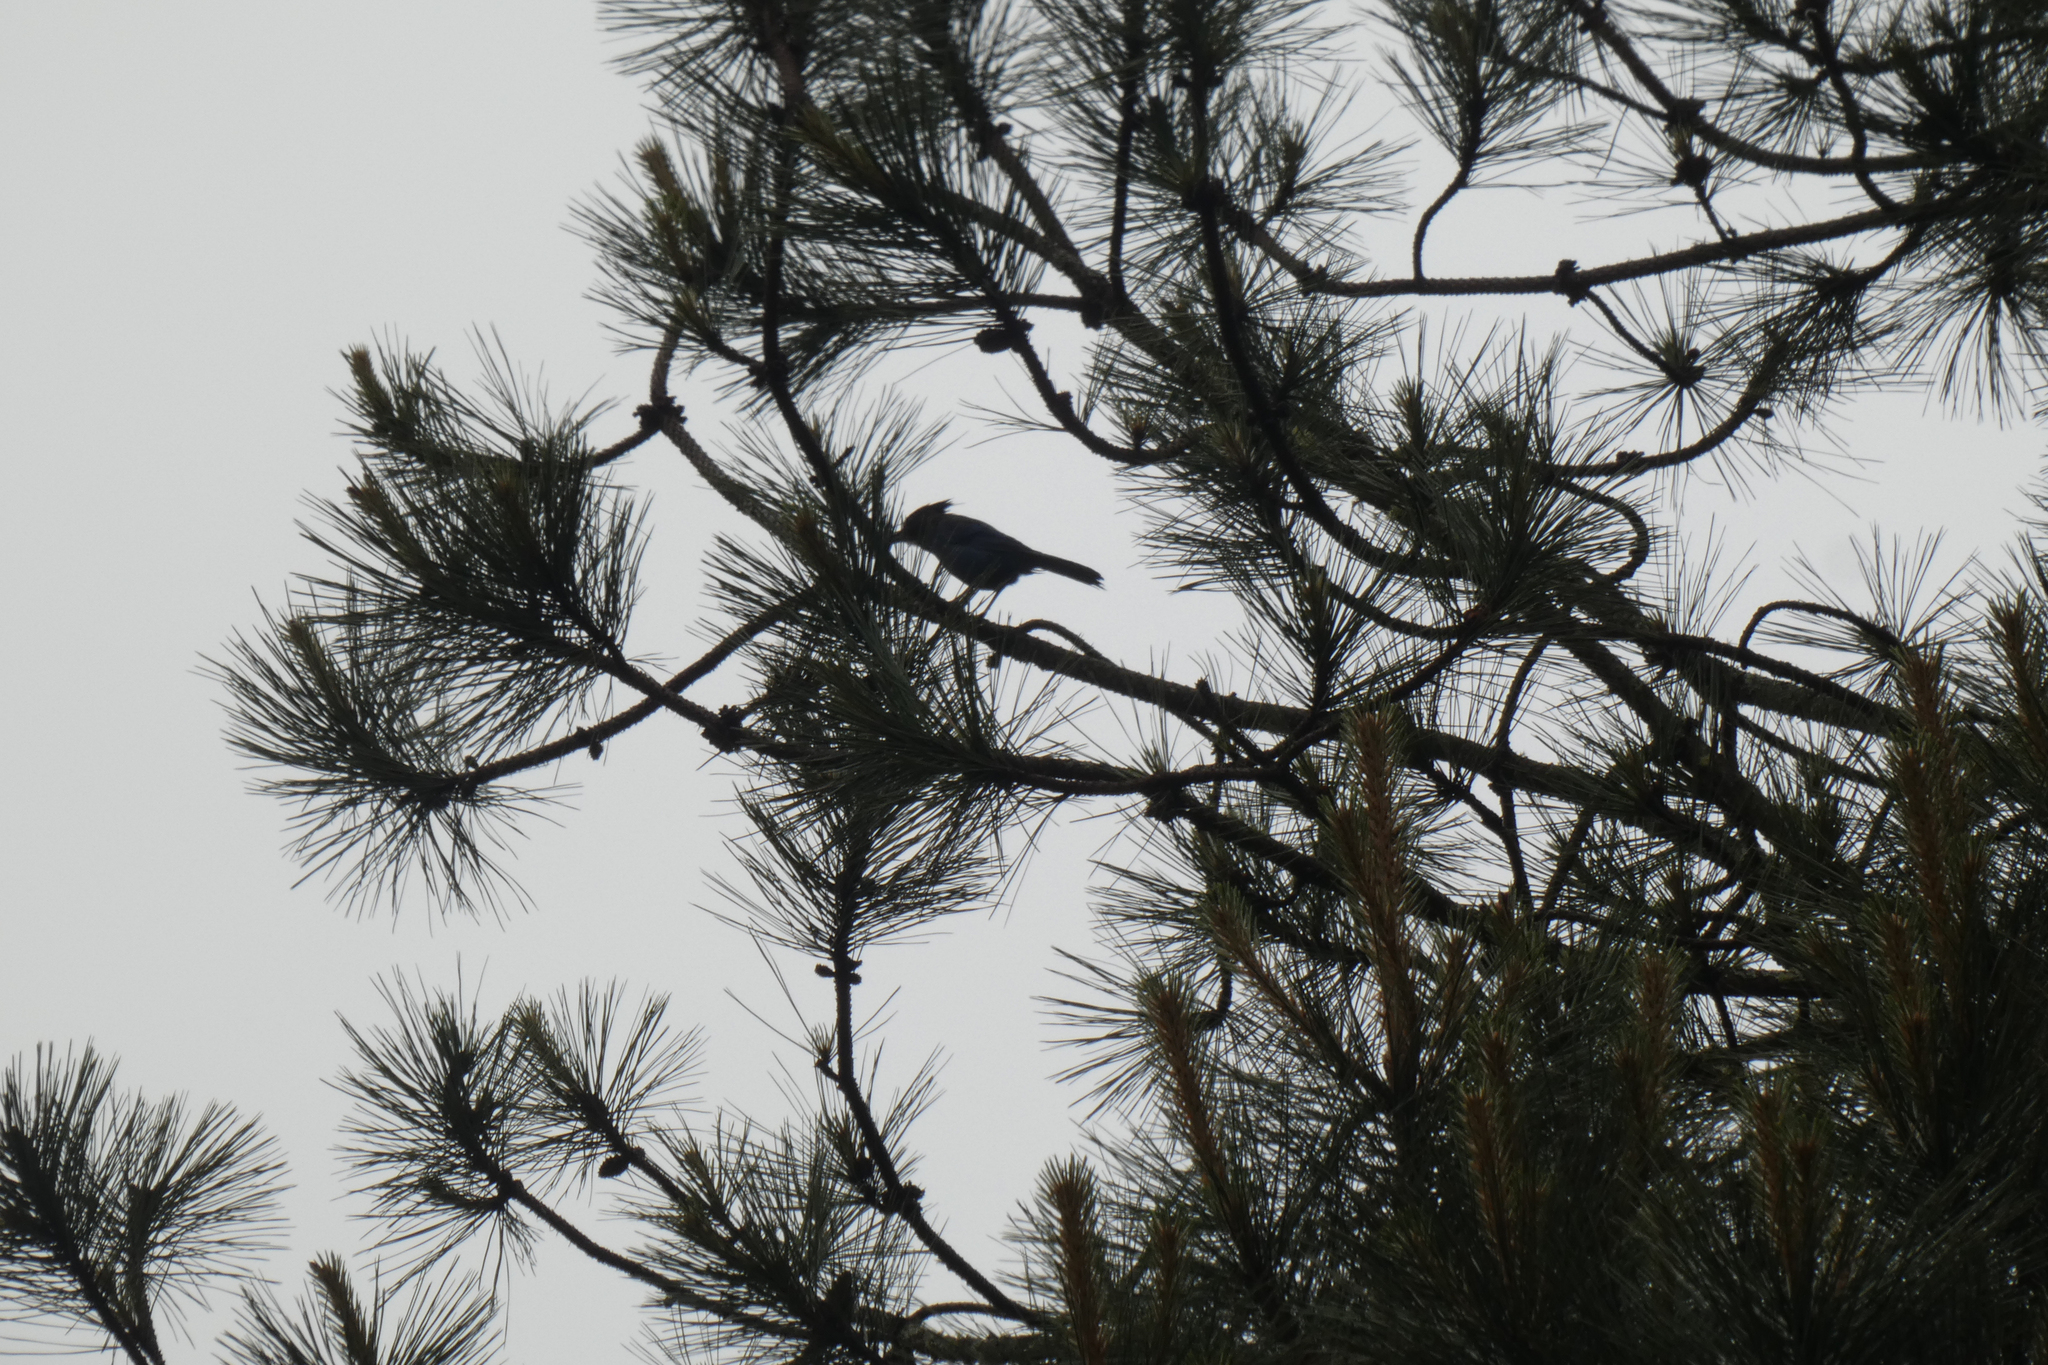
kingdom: Animalia
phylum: Chordata
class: Aves
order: Passeriformes
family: Corvidae
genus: Cyanocitta
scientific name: Cyanocitta stelleri
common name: Steller's jay
